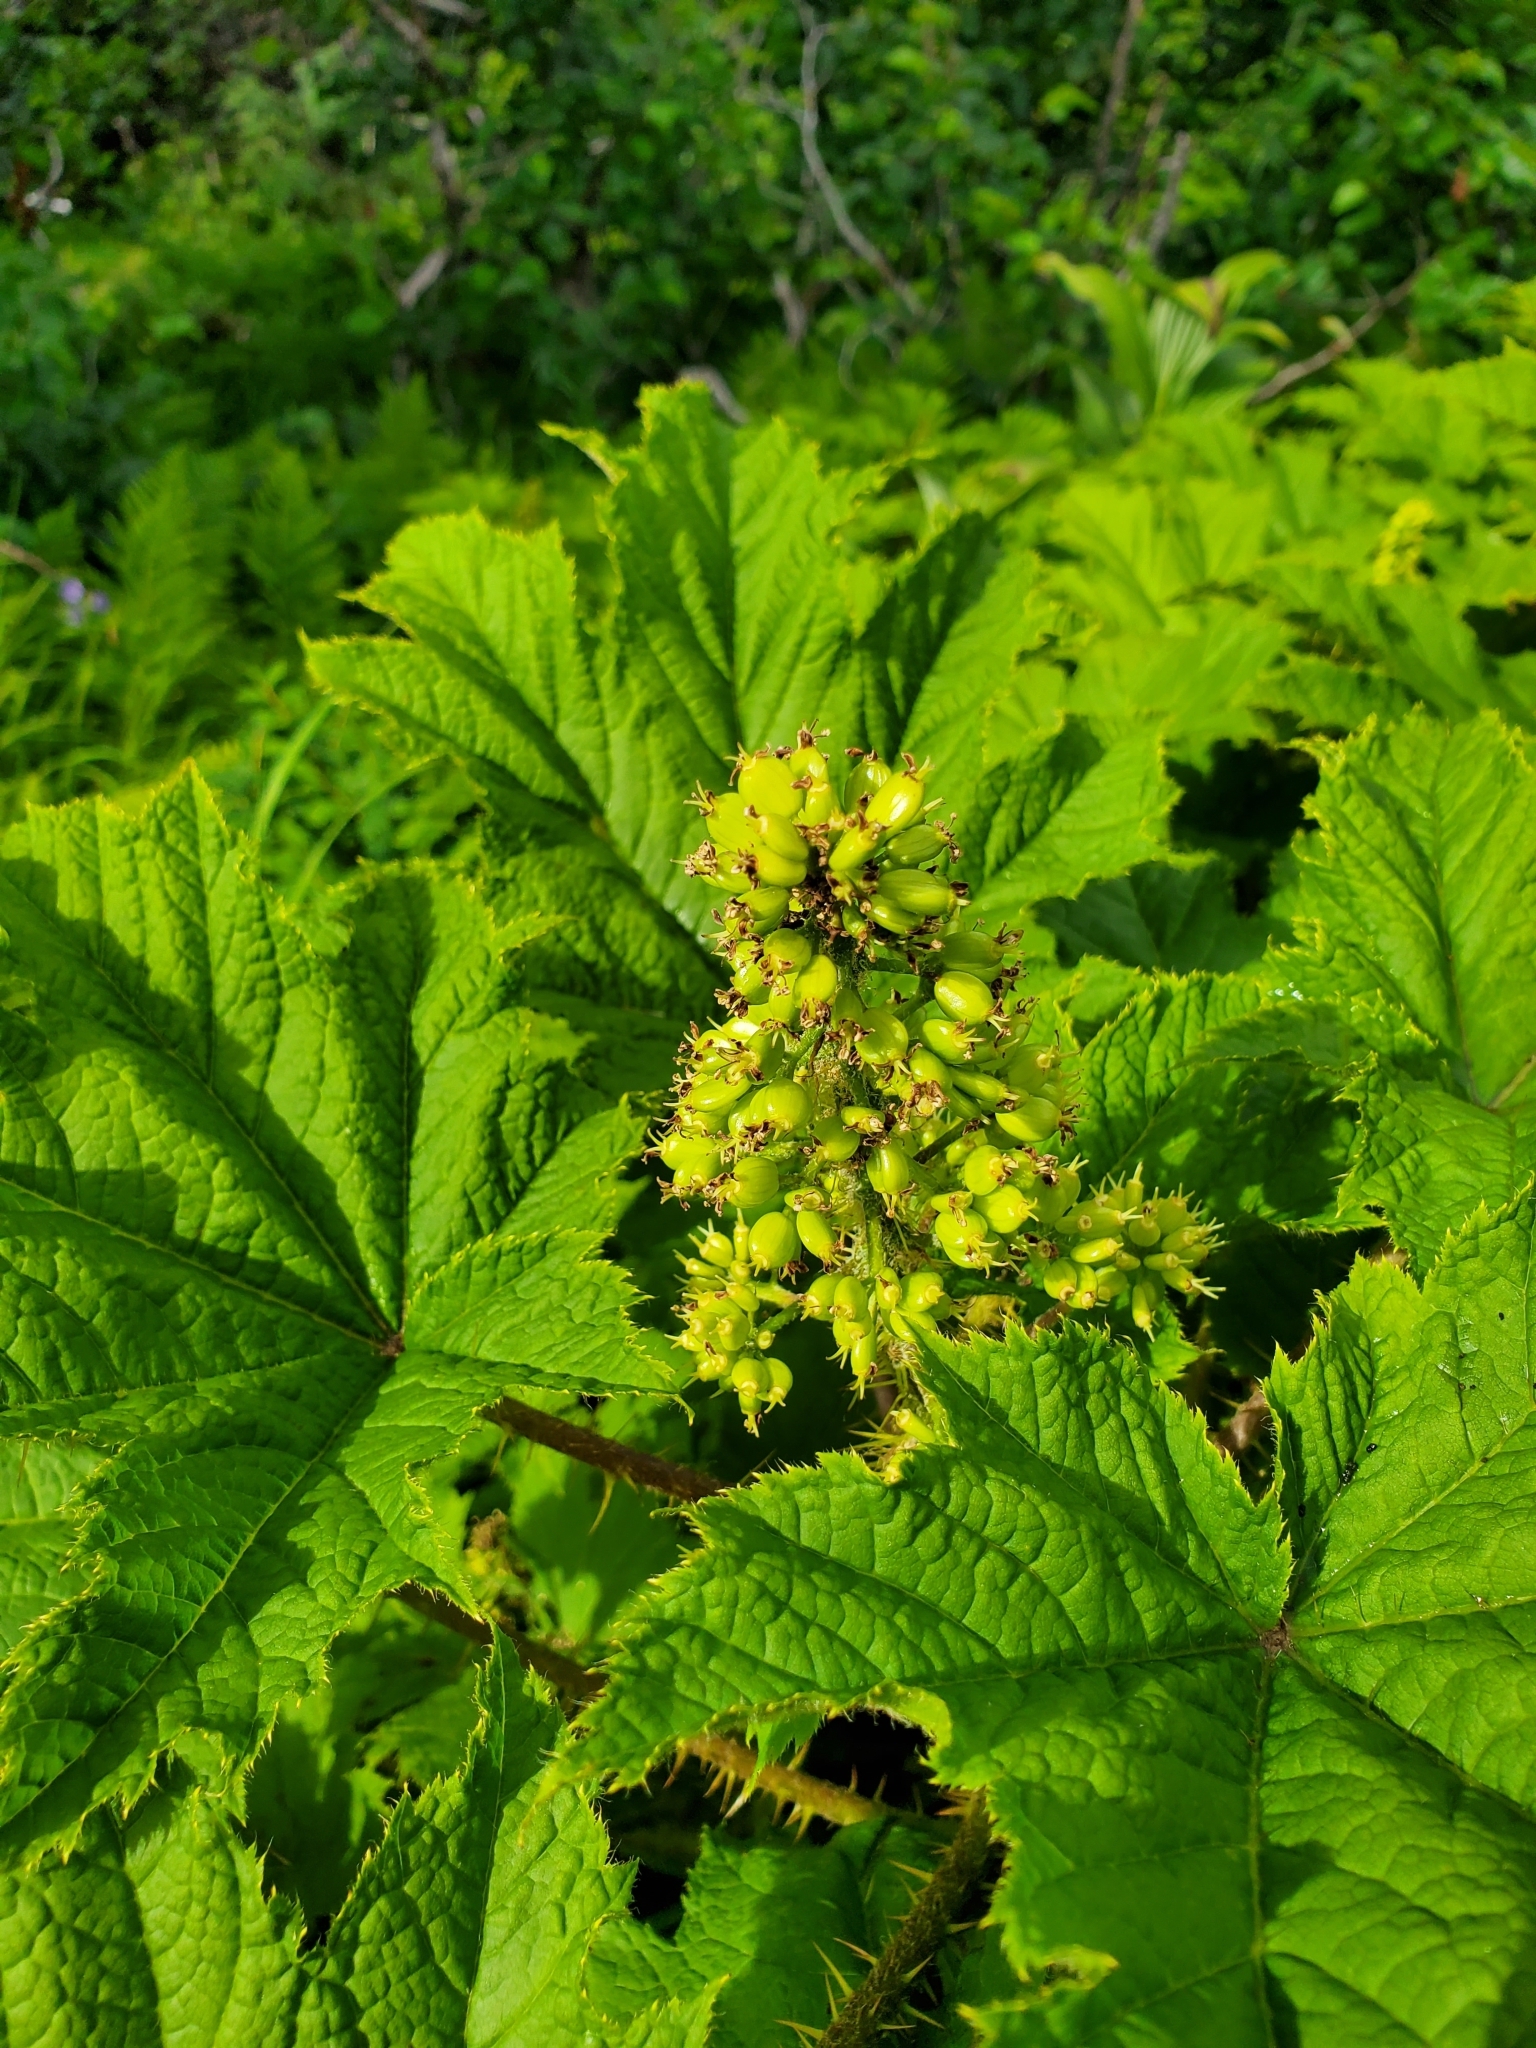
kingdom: Plantae
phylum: Tracheophyta
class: Magnoliopsida
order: Apiales
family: Araliaceae
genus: Oplopanax
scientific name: Oplopanax horridus
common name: Devil's walking-stick
